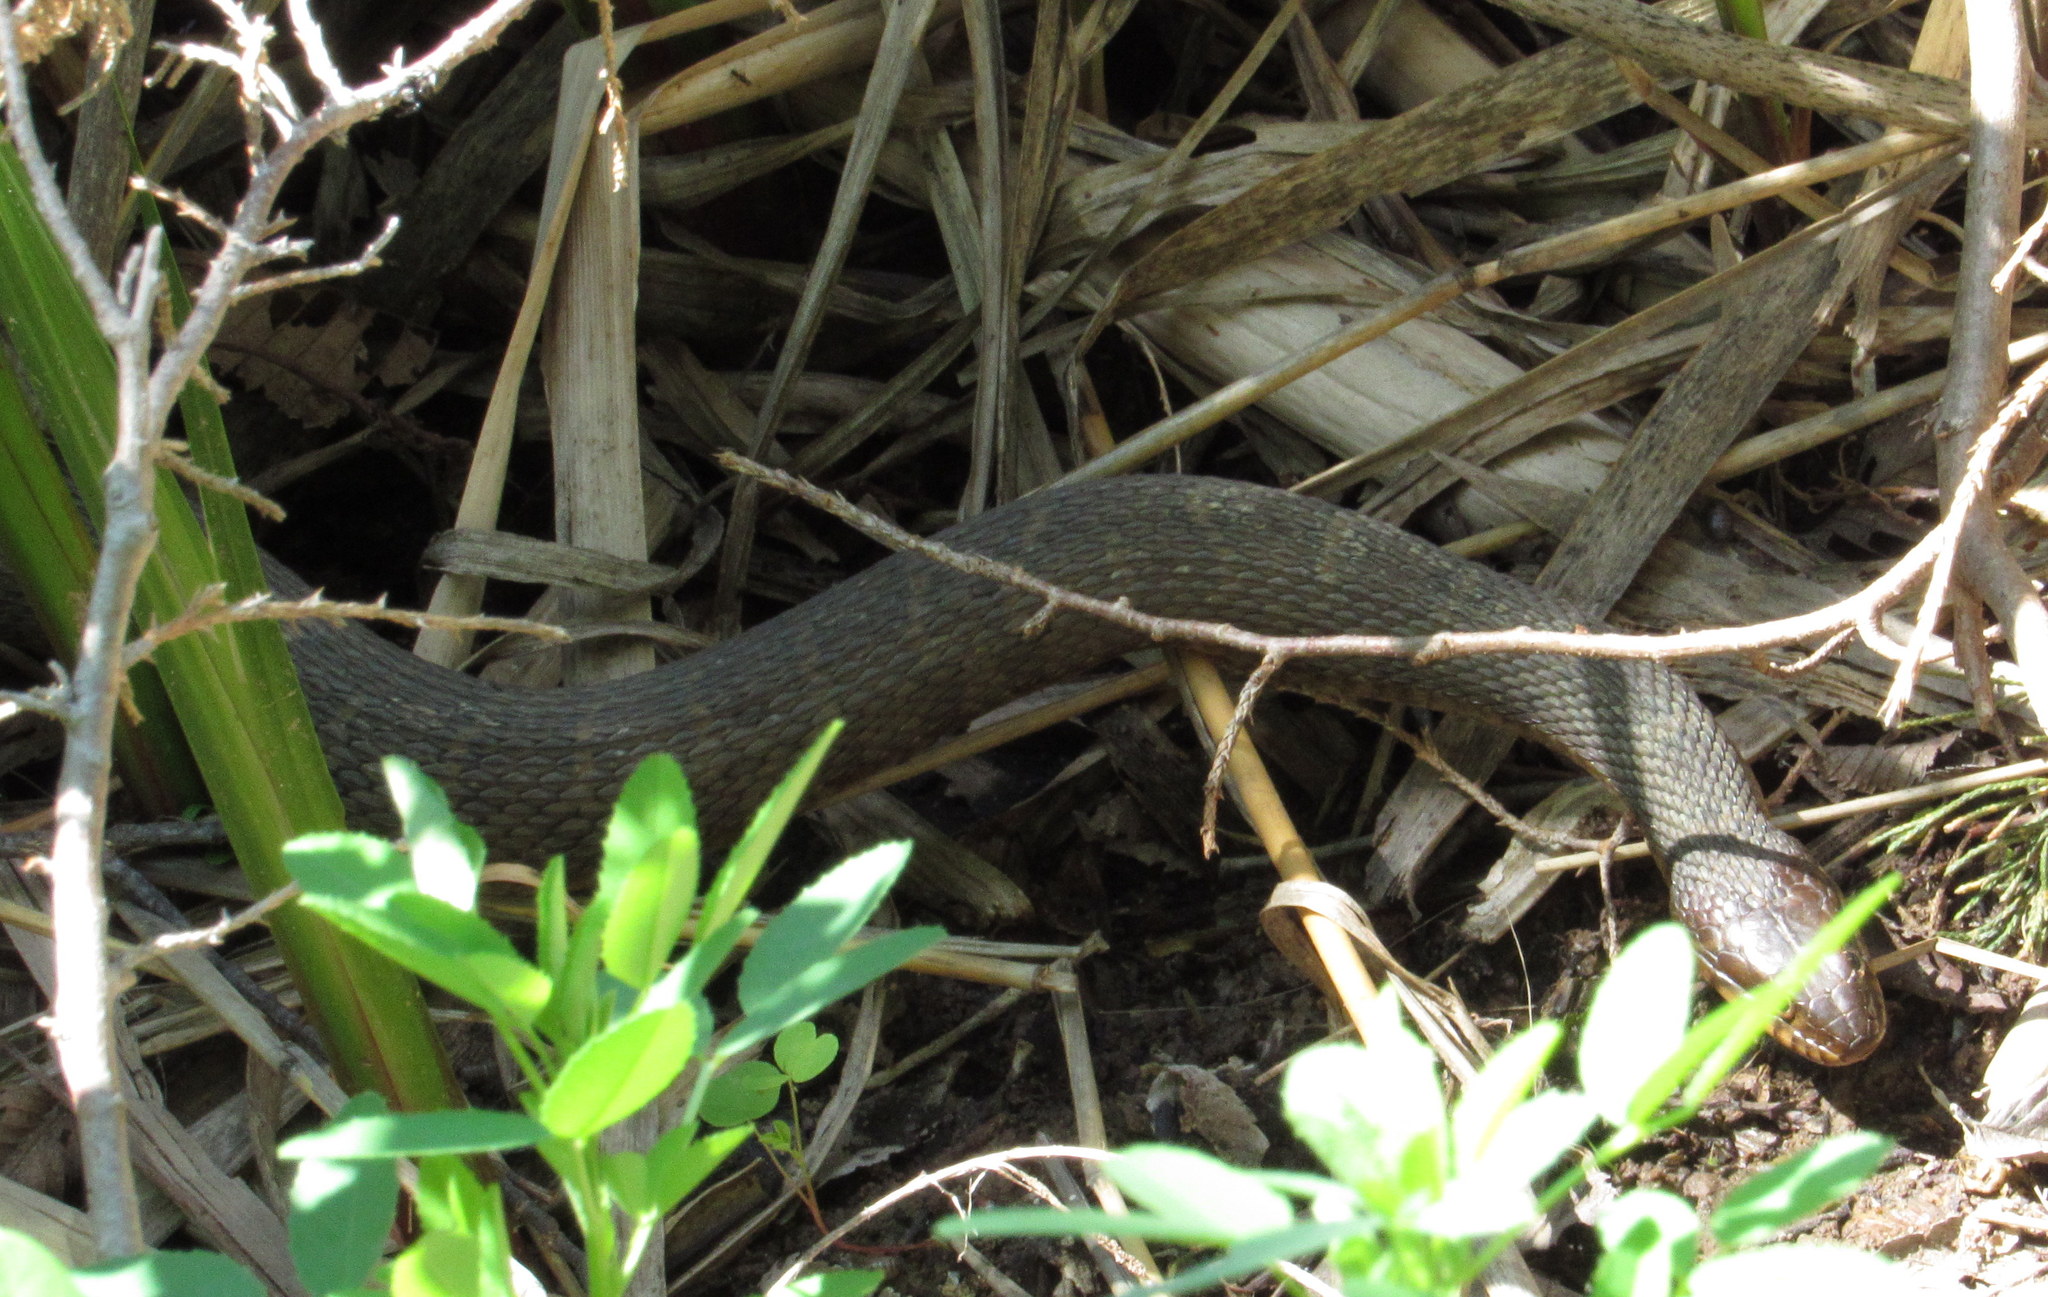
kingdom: Animalia
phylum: Chordata
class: Squamata
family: Colubridae
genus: Nerodia
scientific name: Nerodia erythrogaster
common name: Plainbelly water snake
